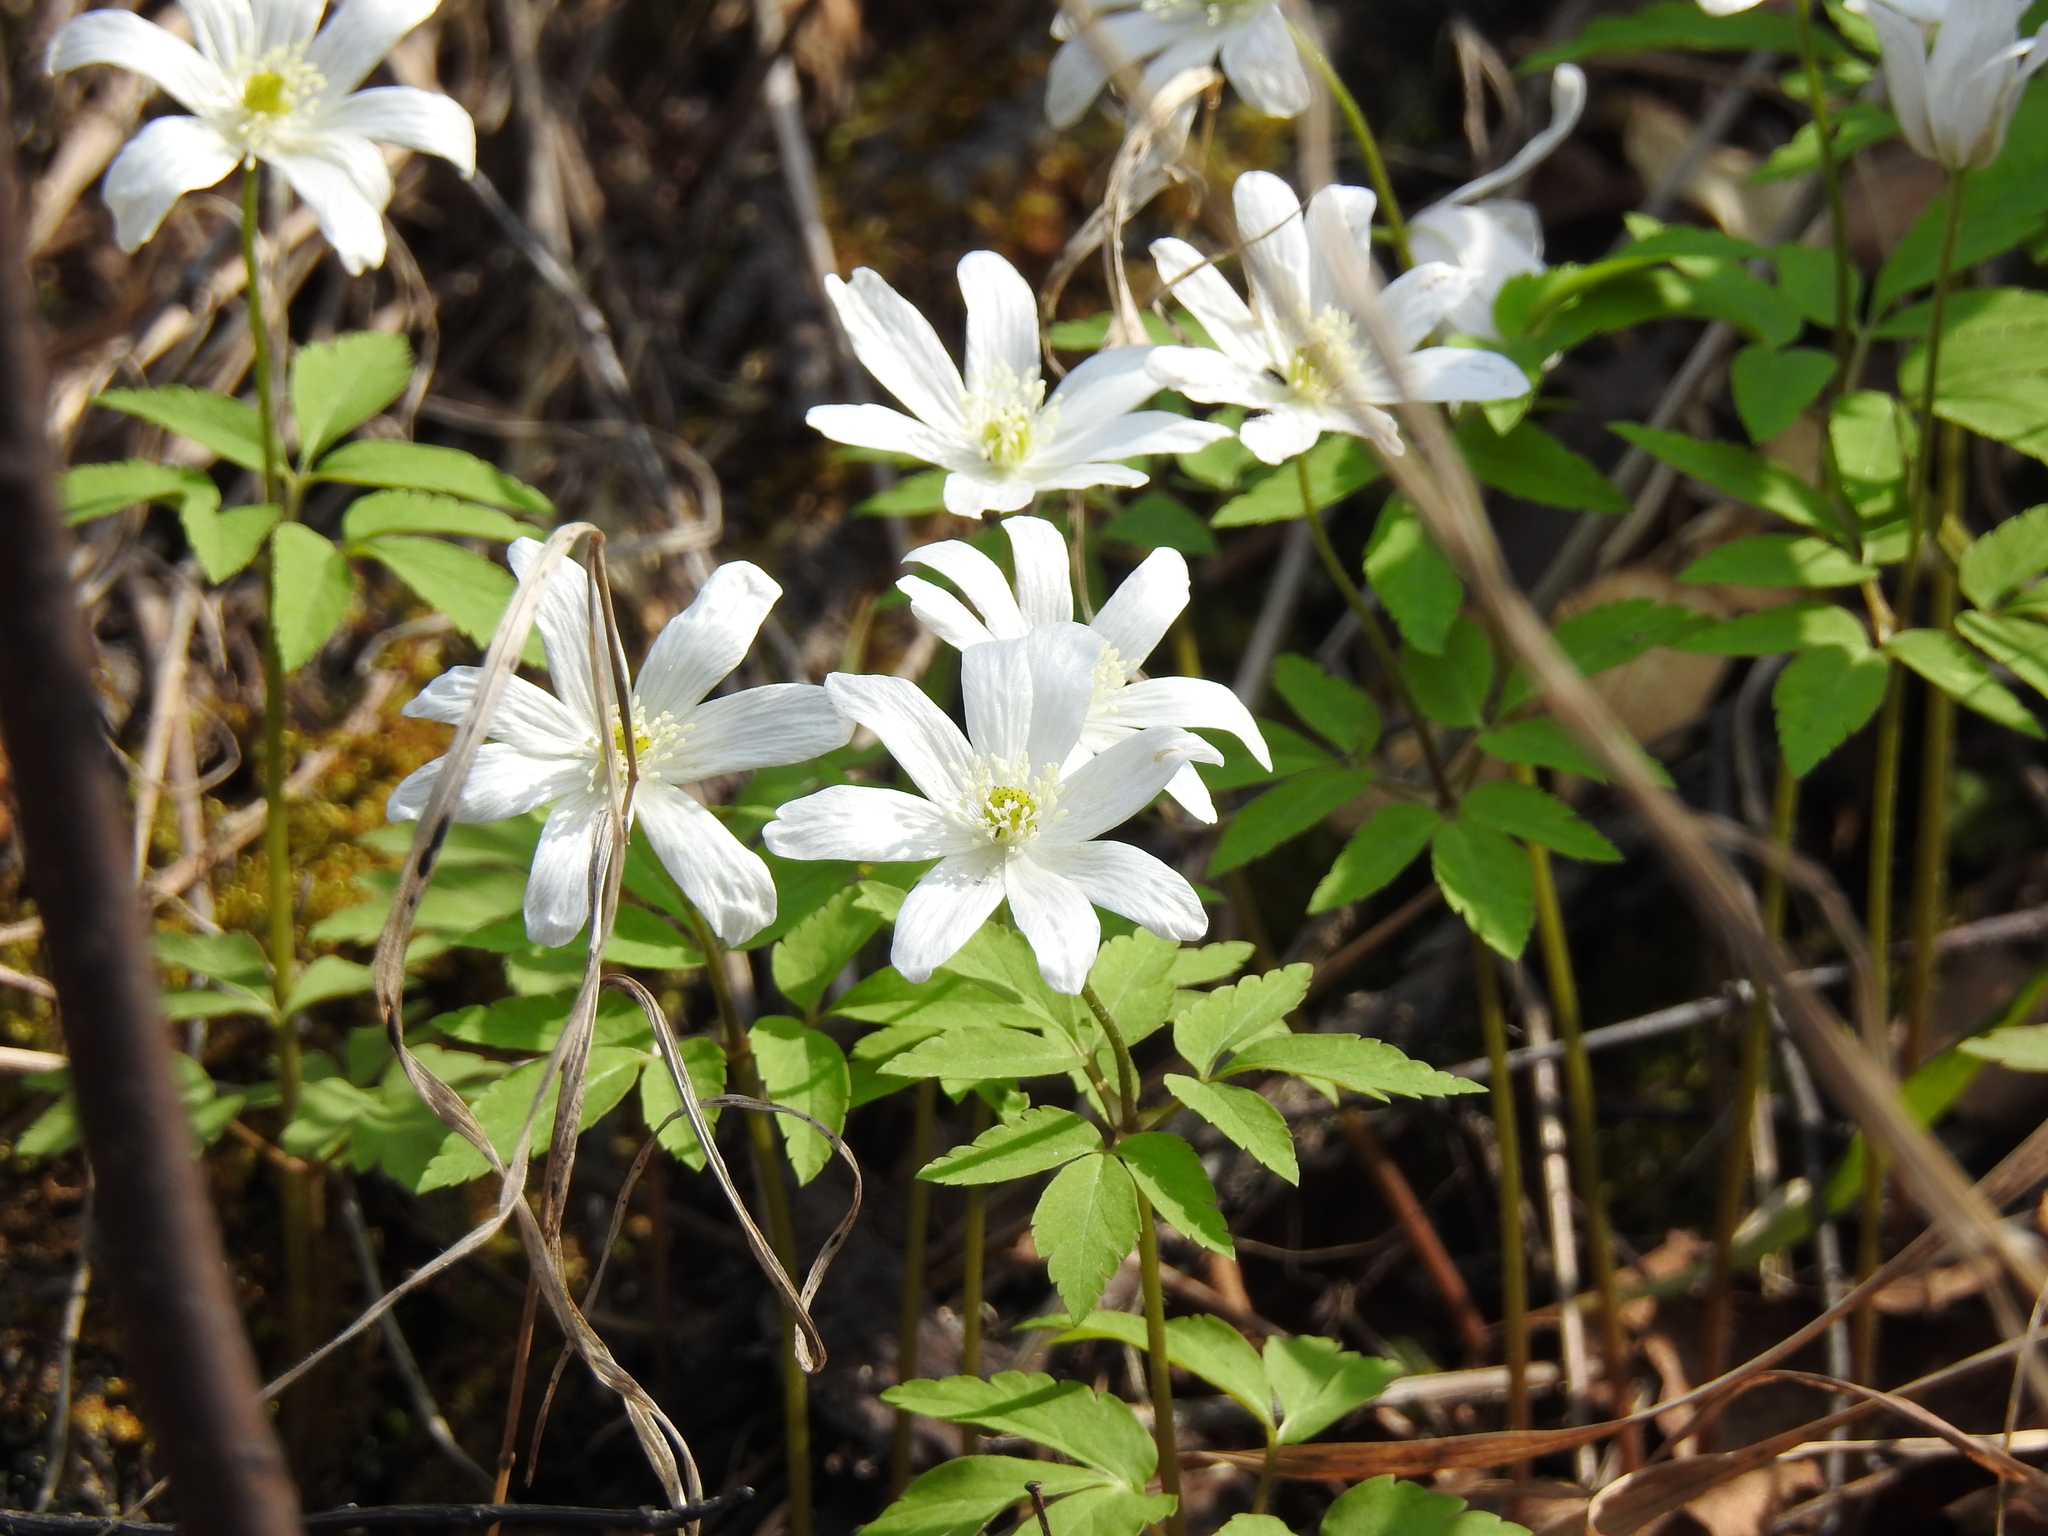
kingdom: Plantae
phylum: Tracheophyta
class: Magnoliopsida
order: Ranunculales
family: Ranunculaceae
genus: Anemone
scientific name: Anemone altaica
